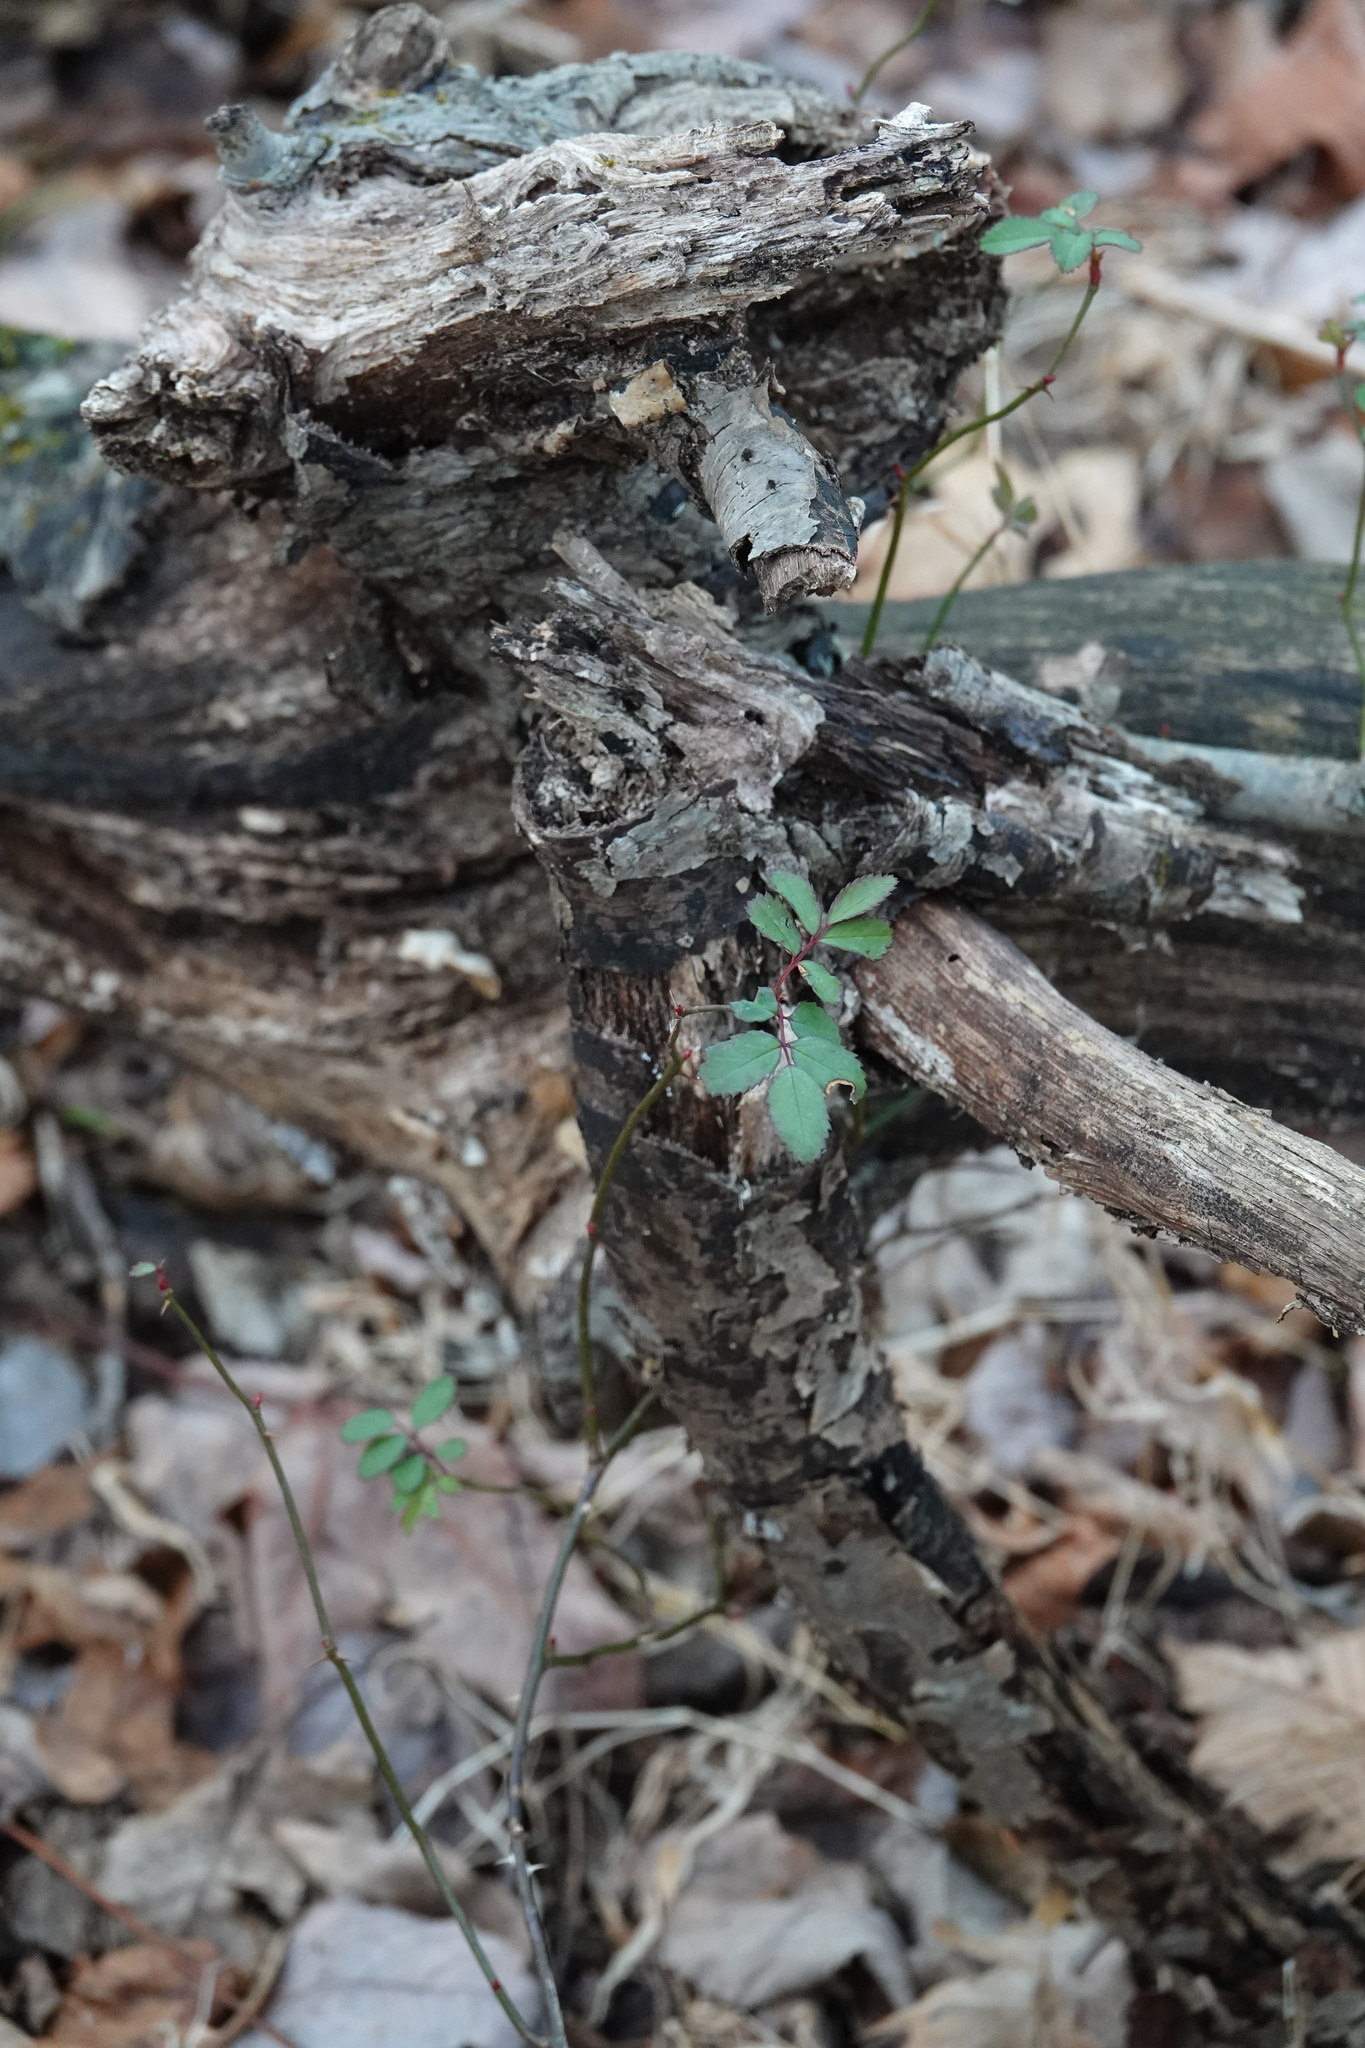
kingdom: Plantae
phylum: Tracheophyta
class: Magnoliopsida
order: Rosales
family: Rosaceae
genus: Rosa
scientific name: Rosa multiflora
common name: Multiflora rose
